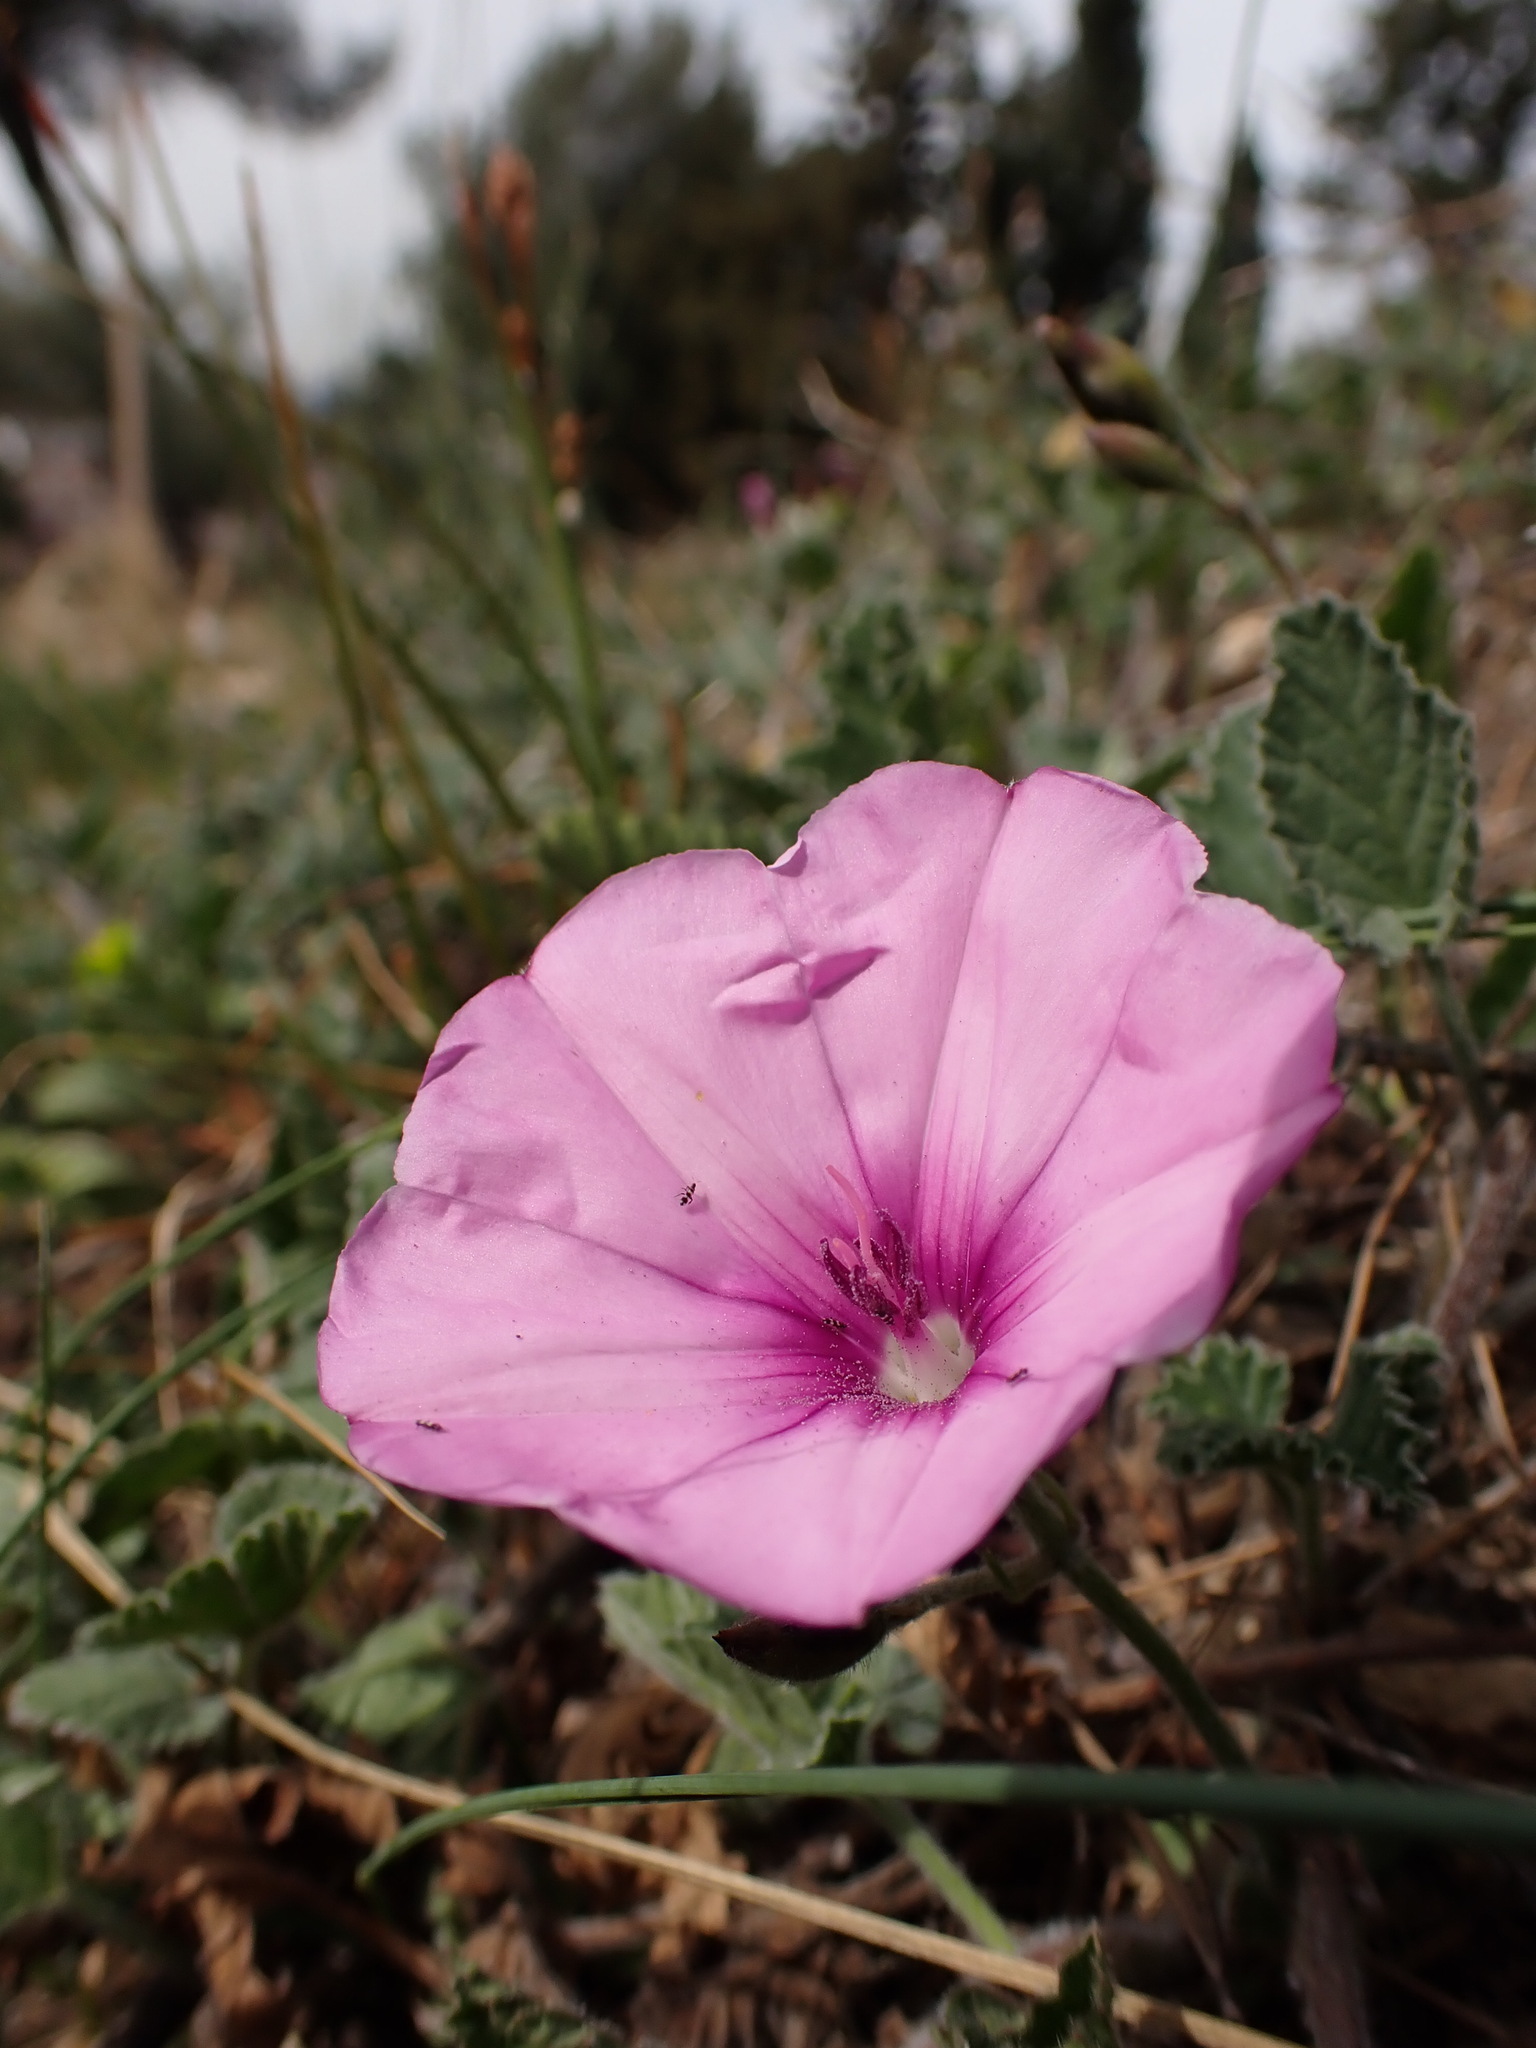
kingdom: Plantae
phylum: Tracheophyta
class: Magnoliopsida
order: Solanales
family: Convolvulaceae
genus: Convolvulus
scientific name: Convolvulus althaeoides
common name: Mallow bindweed
